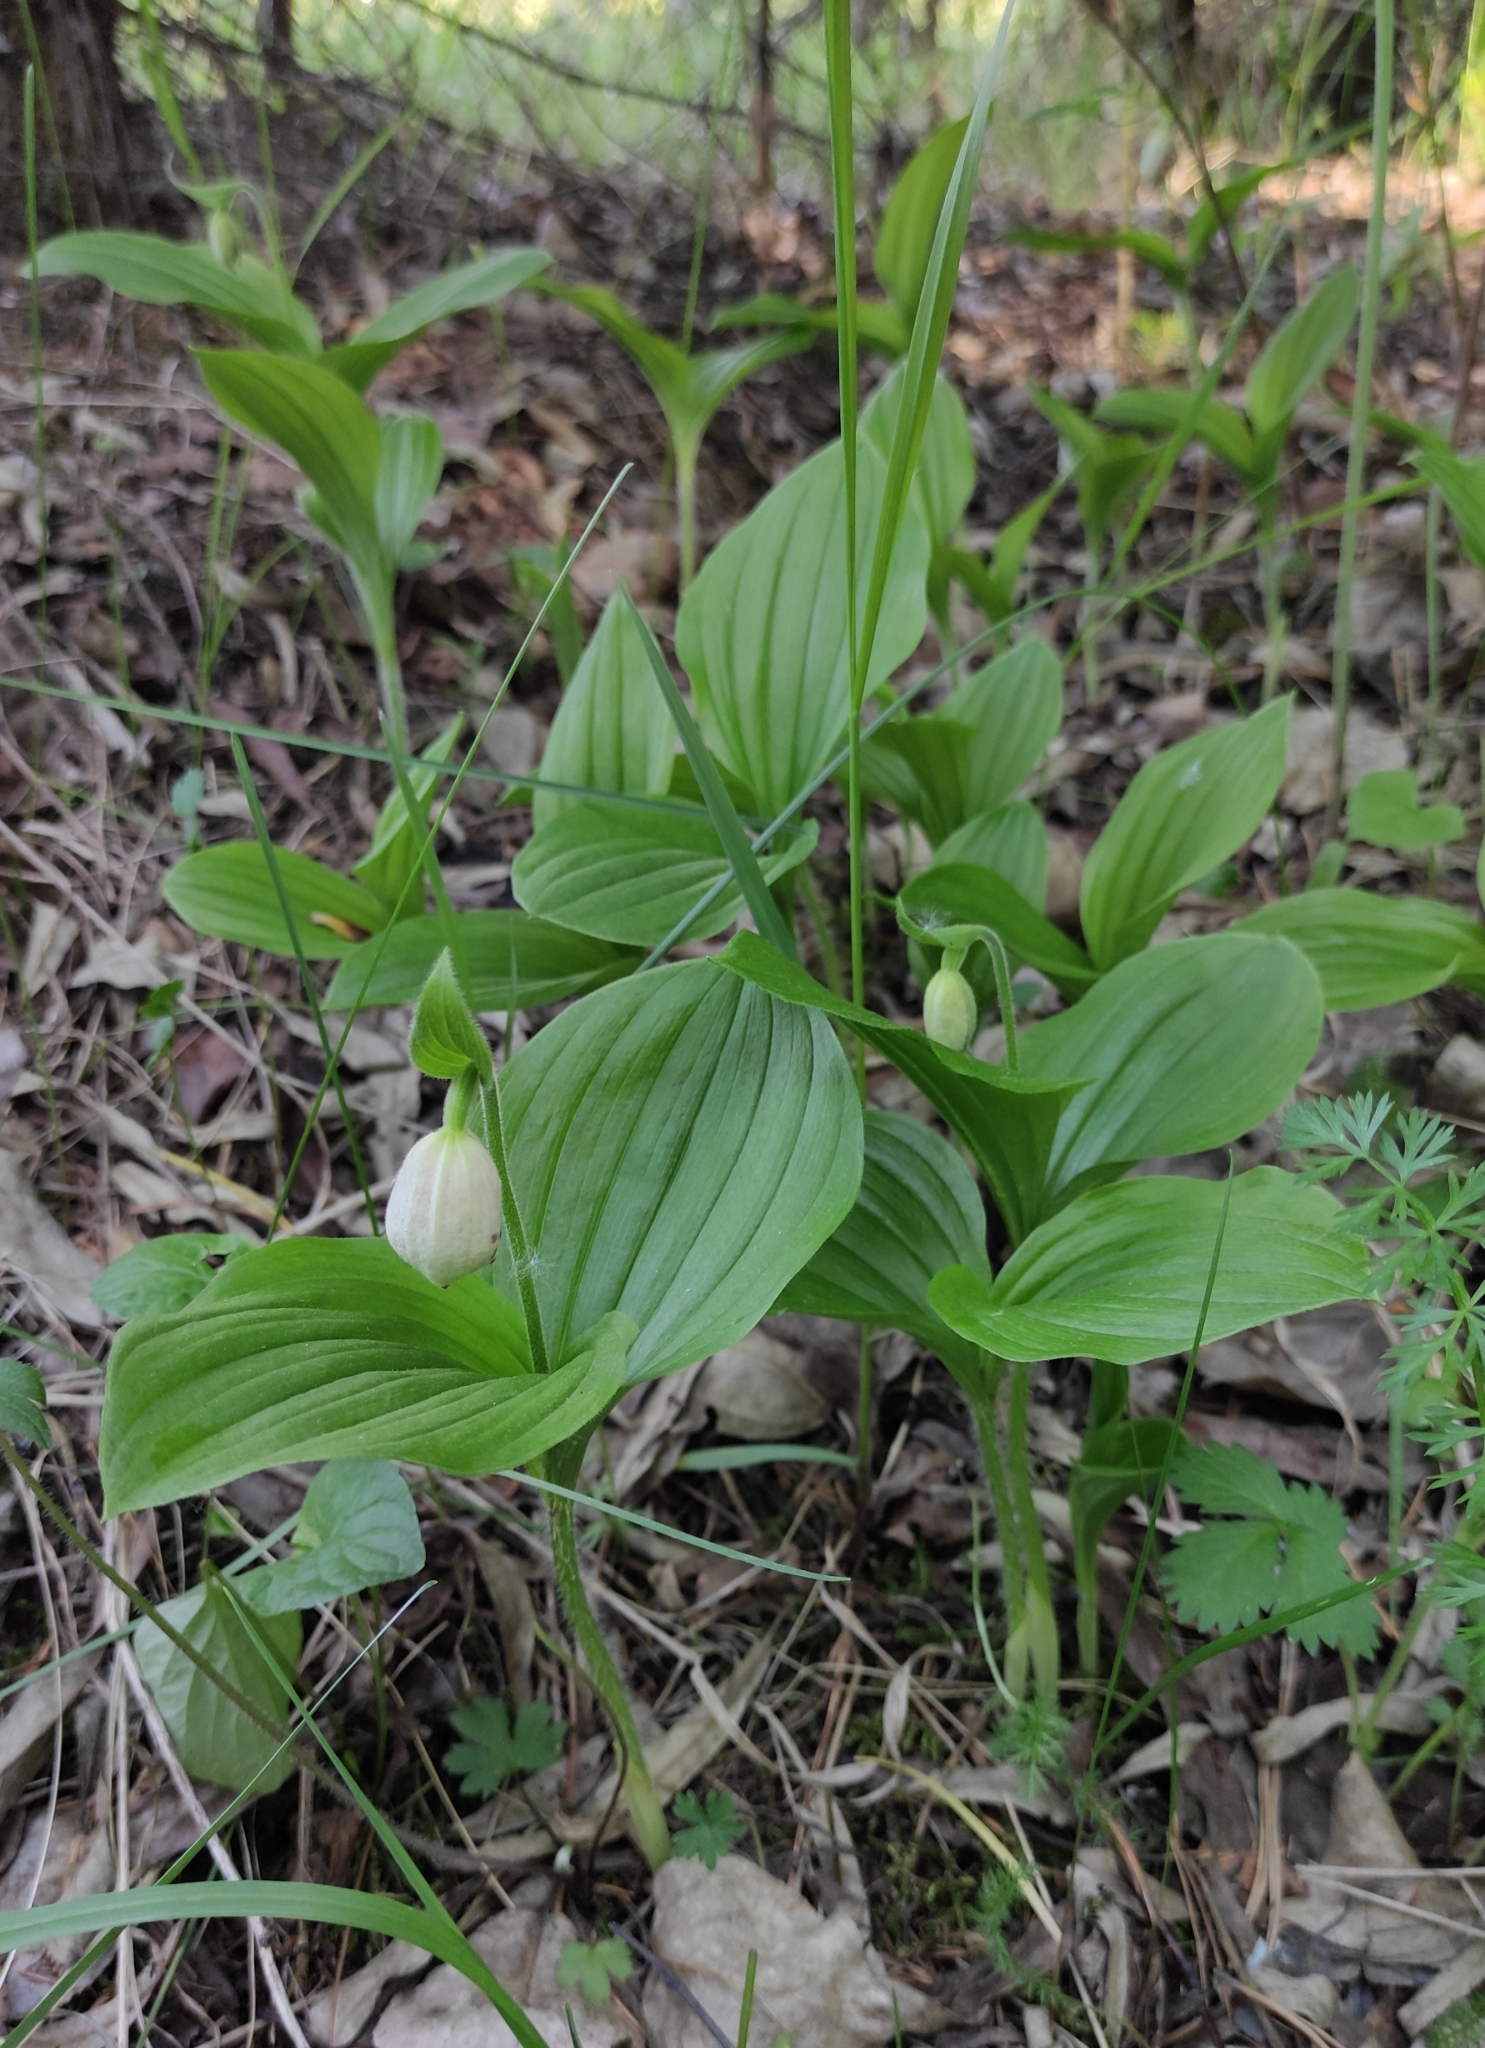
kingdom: Plantae
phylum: Tracheophyta
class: Liliopsida
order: Asparagales
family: Orchidaceae
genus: Cypripedium
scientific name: Cypripedium guttatum
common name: Pink lady slipper
